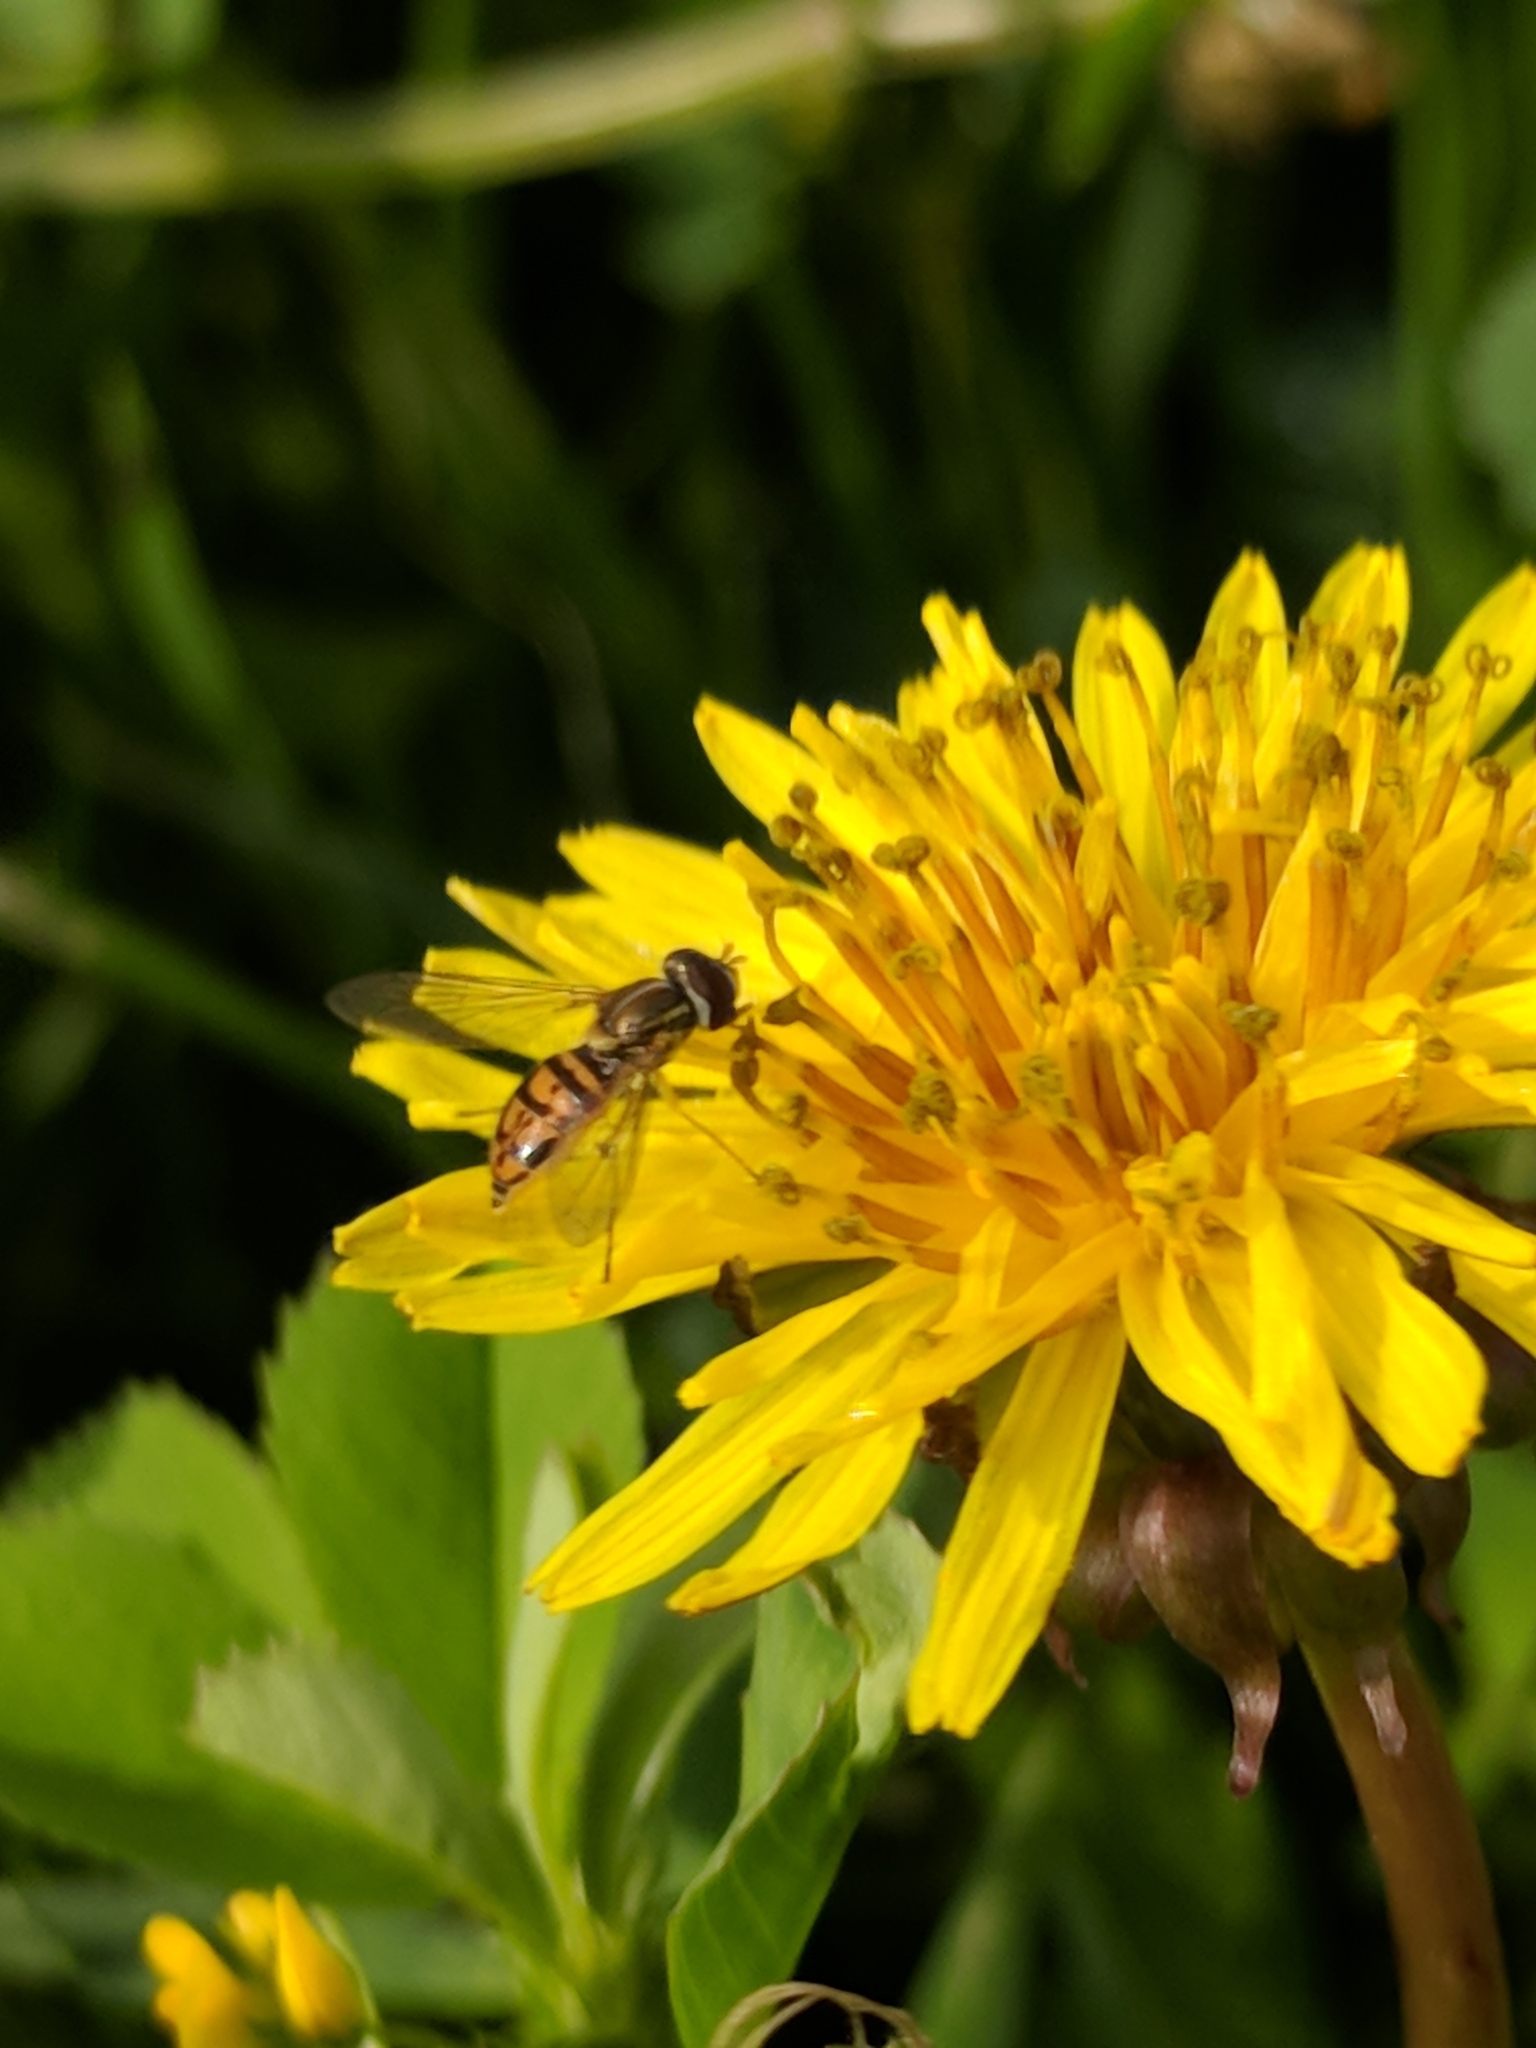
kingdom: Animalia
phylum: Arthropoda
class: Insecta
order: Diptera
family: Syrphidae
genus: Toxomerus
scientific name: Toxomerus marginatus
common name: Syrphid fly
